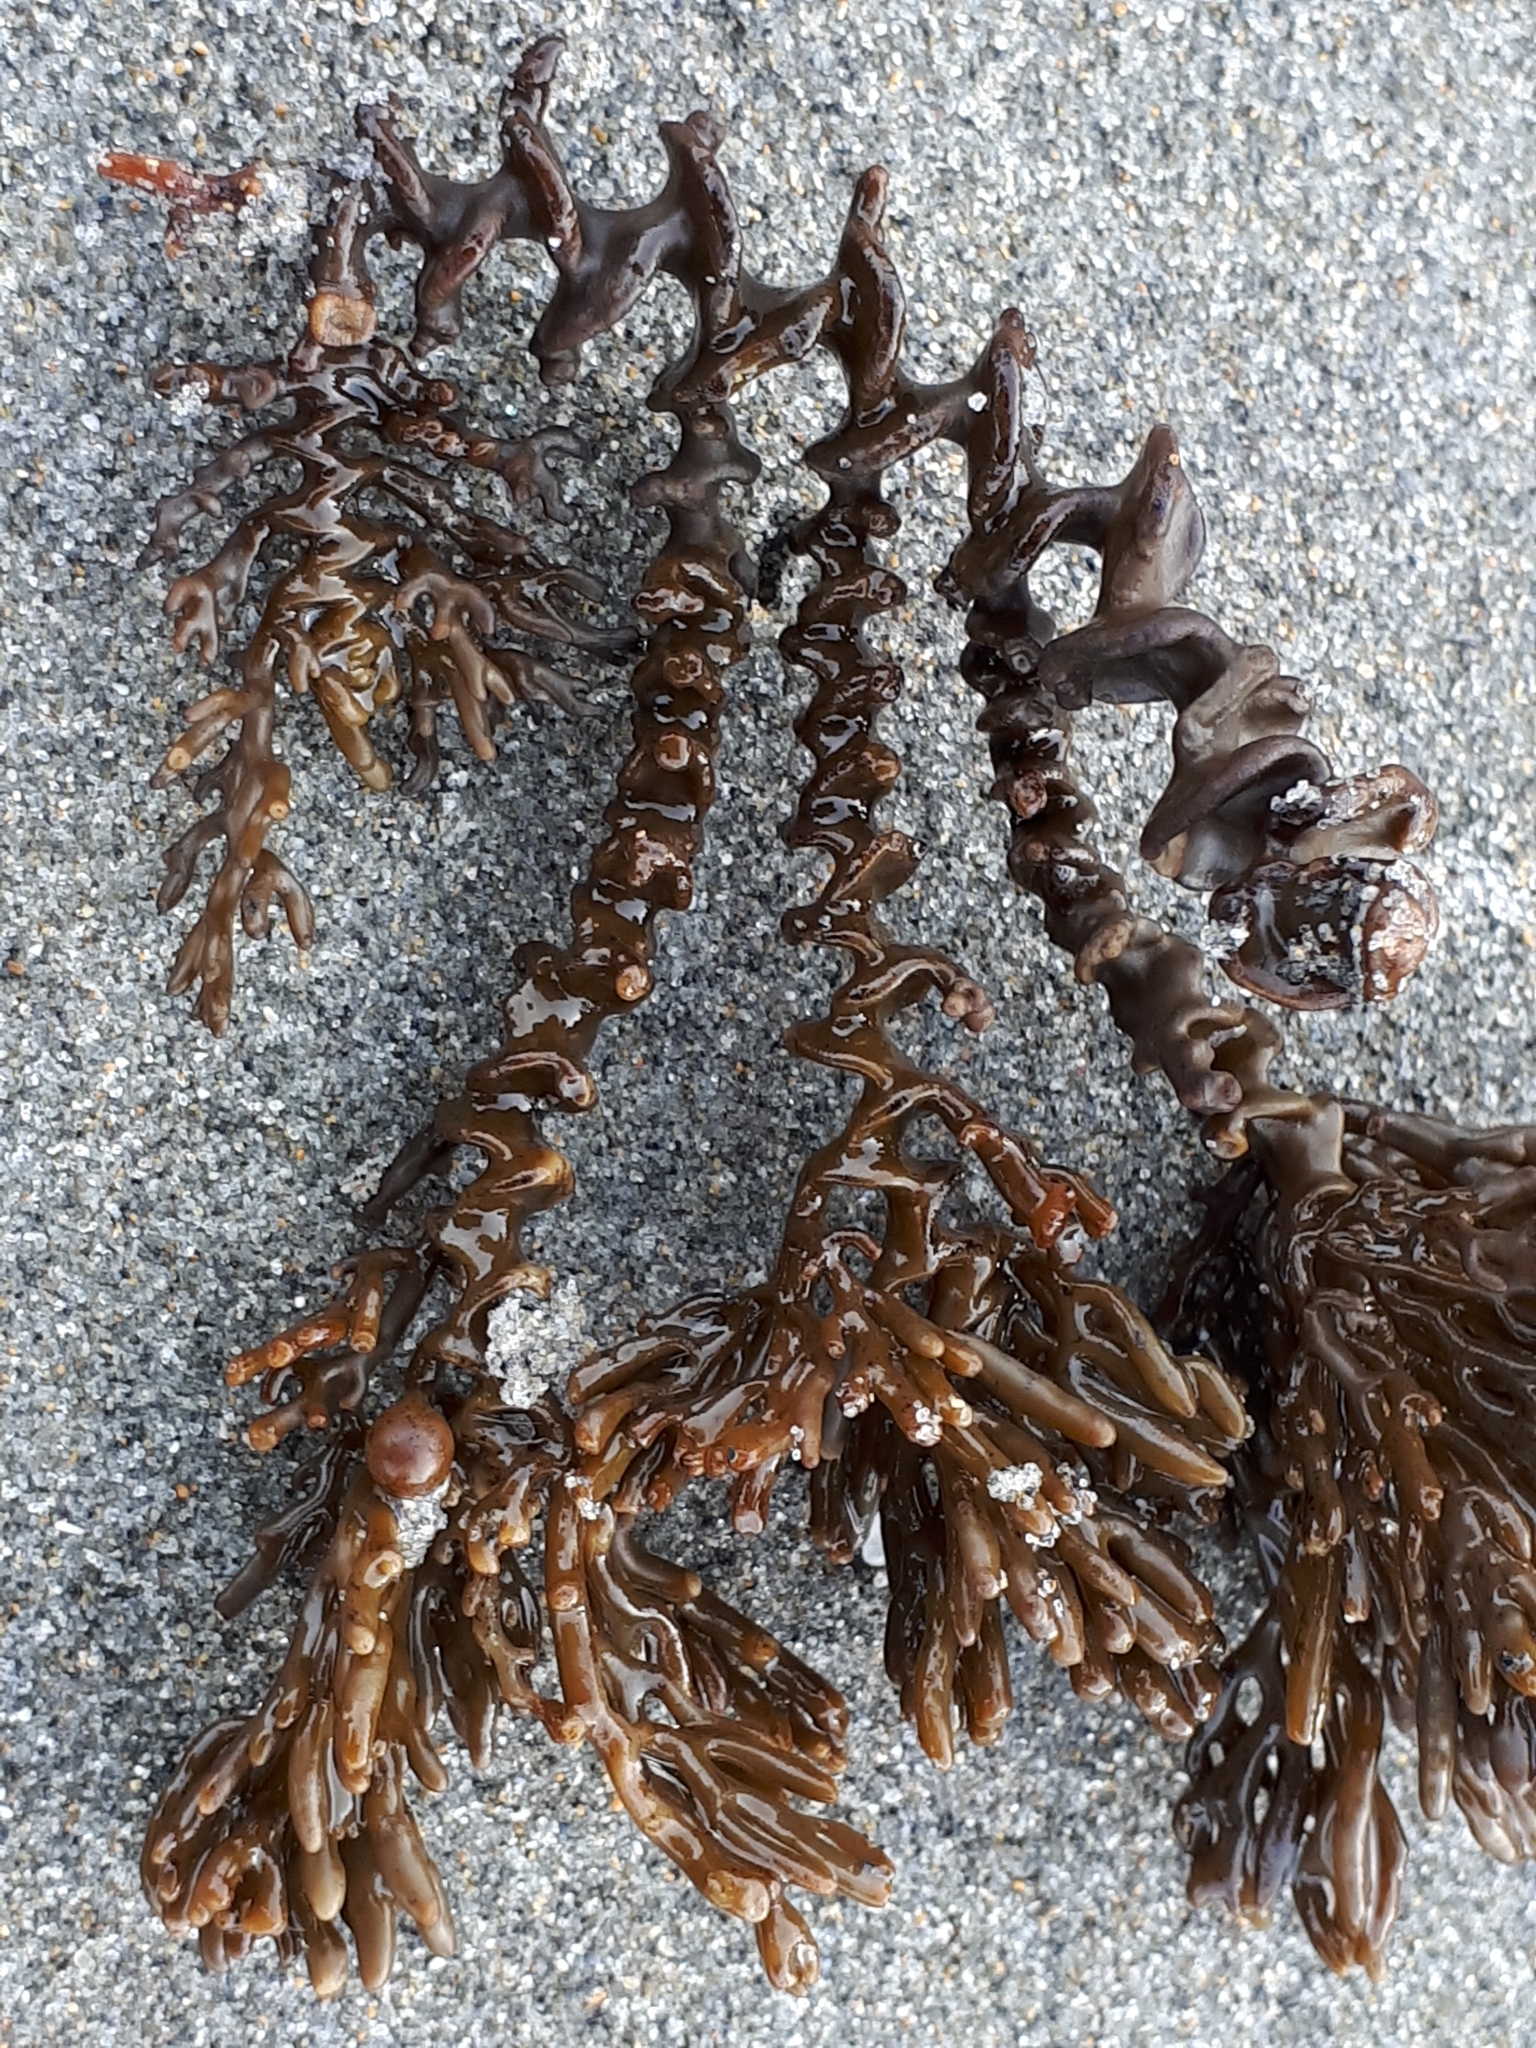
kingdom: Chromista
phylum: Ochrophyta
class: Phaeophyceae
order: Fucales
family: Sargassaceae
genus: Cystophora
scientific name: Cystophora scalaris
